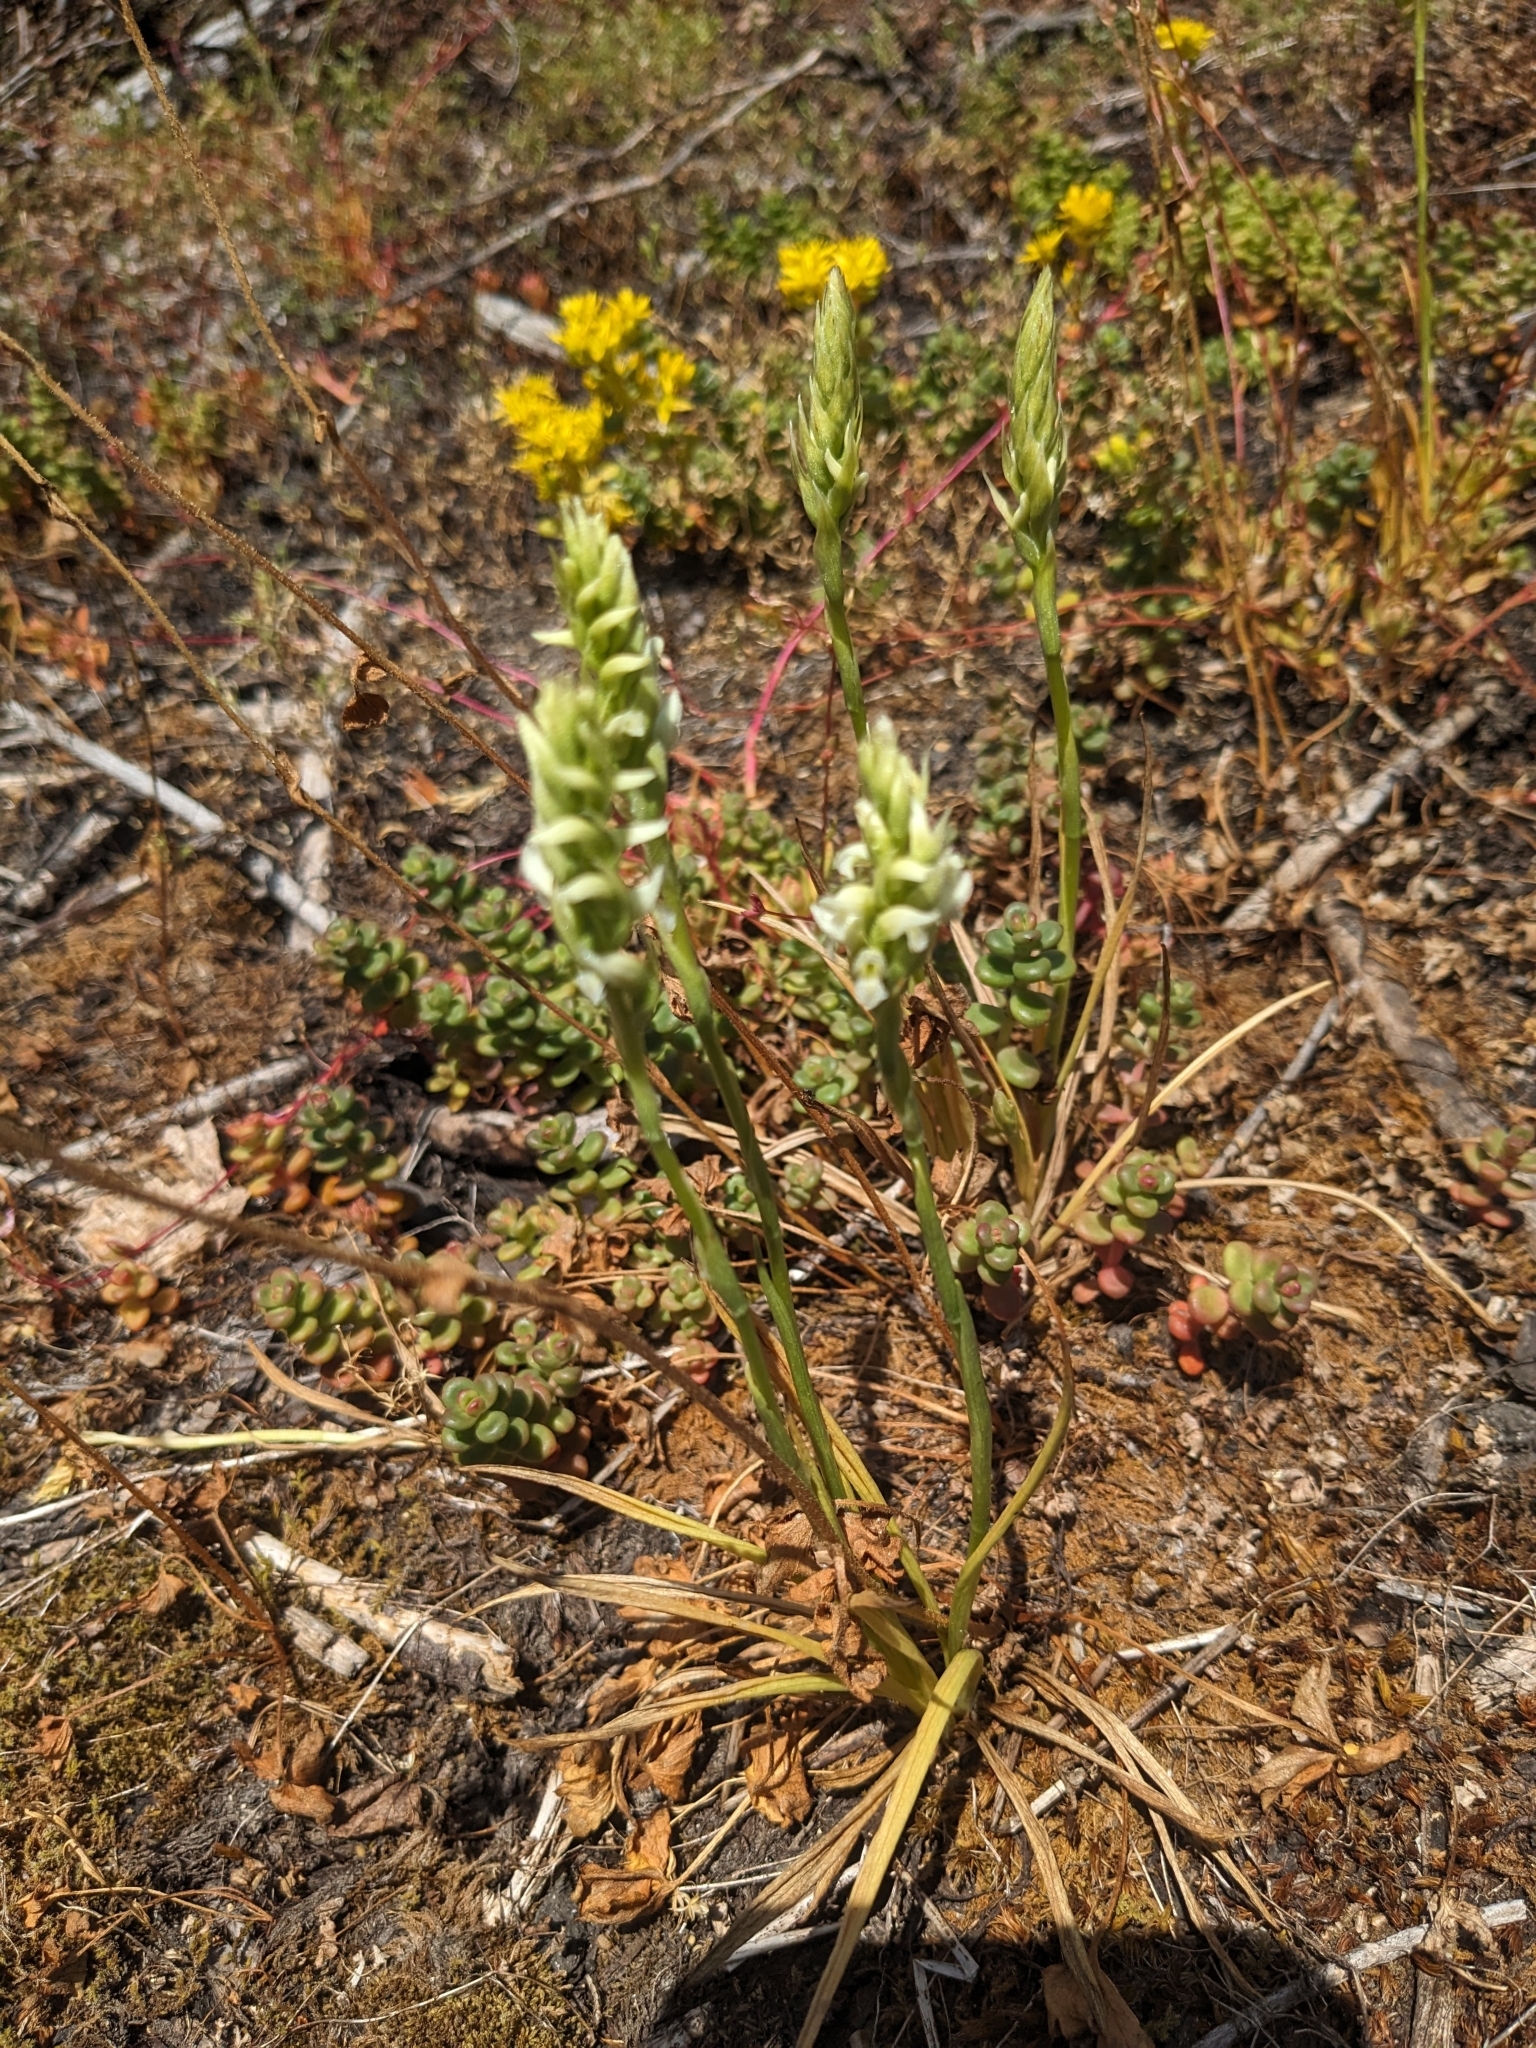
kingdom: Plantae
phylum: Tracheophyta
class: Liliopsida
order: Asparagales
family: Orchidaceae
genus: Spiranthes
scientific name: Spiranthes romanzoffiana
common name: Irish lady's-tresses
